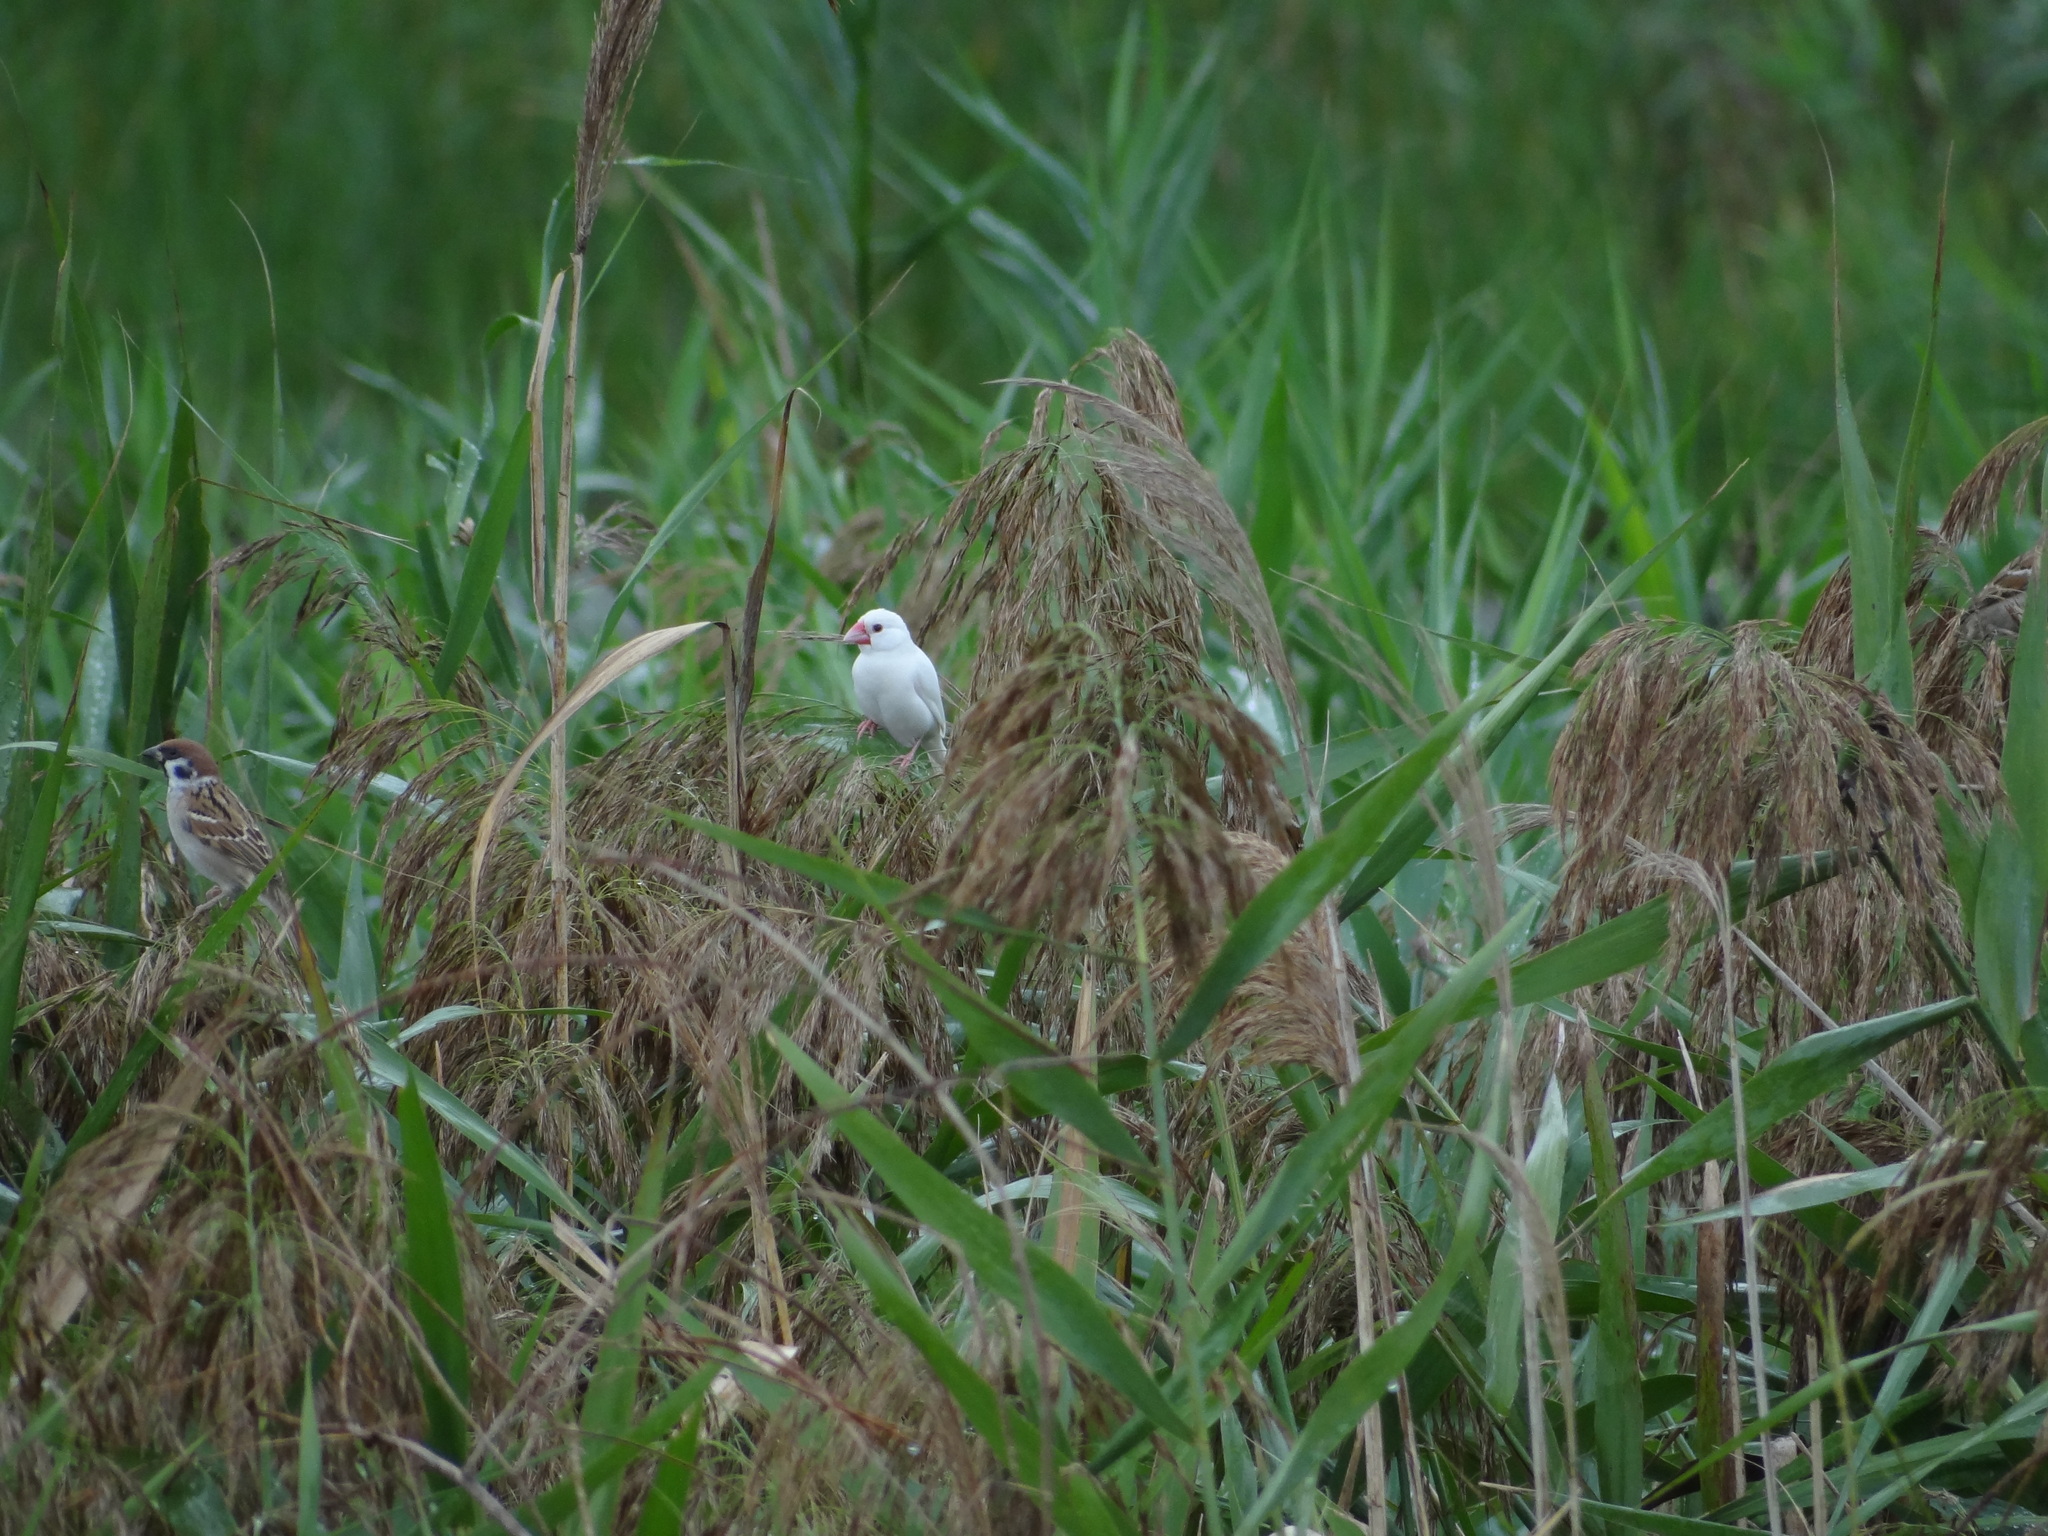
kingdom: Animalia
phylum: Chordata
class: Aves
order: Passeriformes
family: Estrildidae
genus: Lonchura
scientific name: Lonchura oryzivora
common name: Java sparrow
